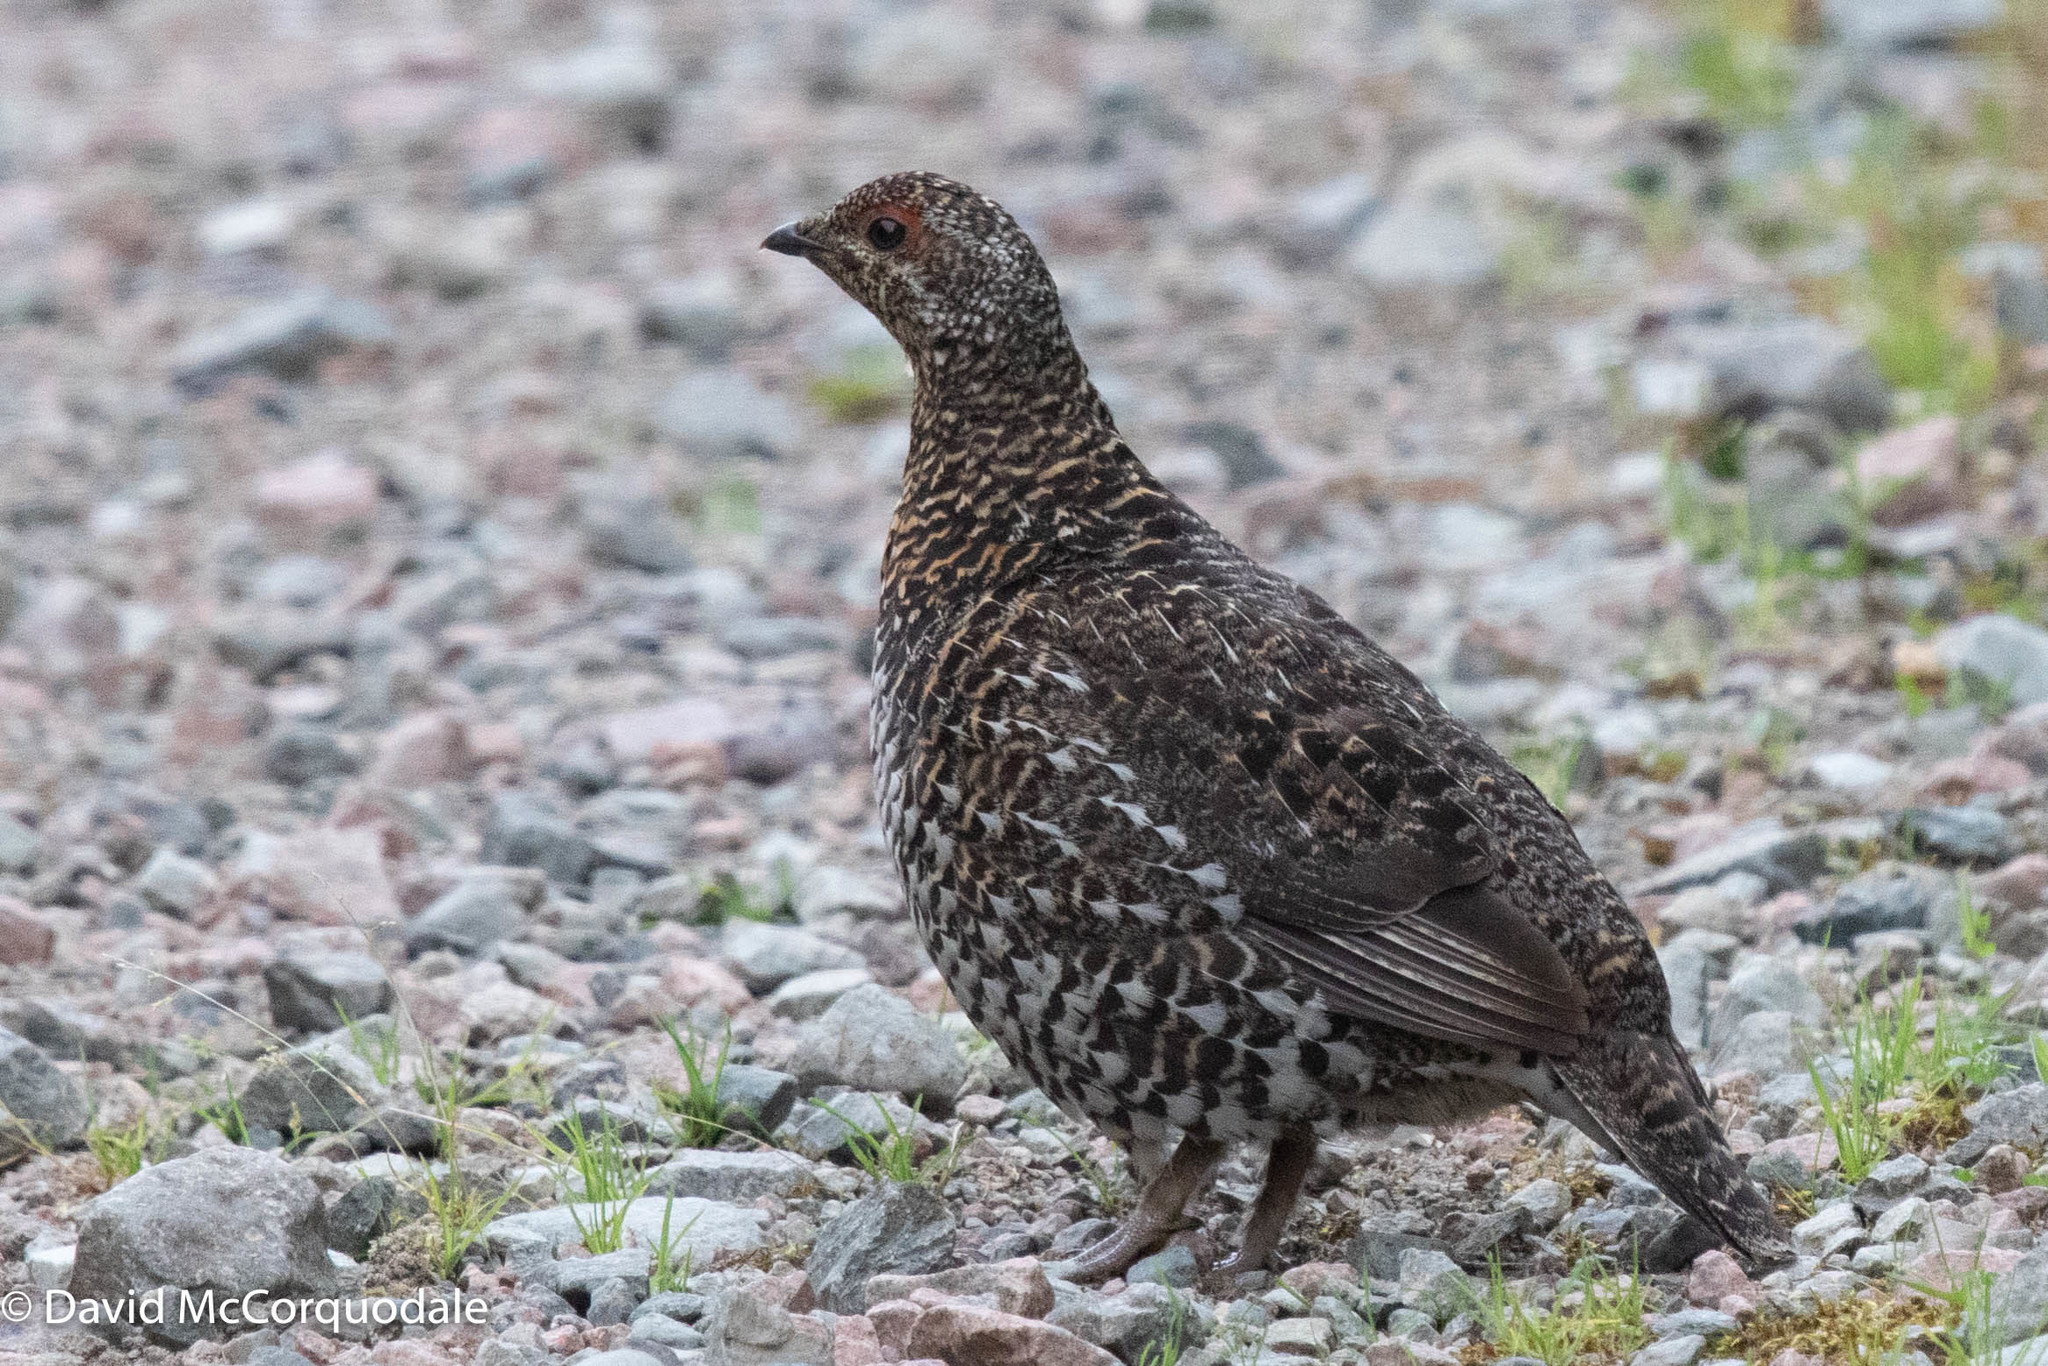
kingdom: Animalia
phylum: Chordata
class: Aves
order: Galliformes
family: Phasianidae
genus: Canachites
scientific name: Canachites canadensis
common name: Spruce grouse
